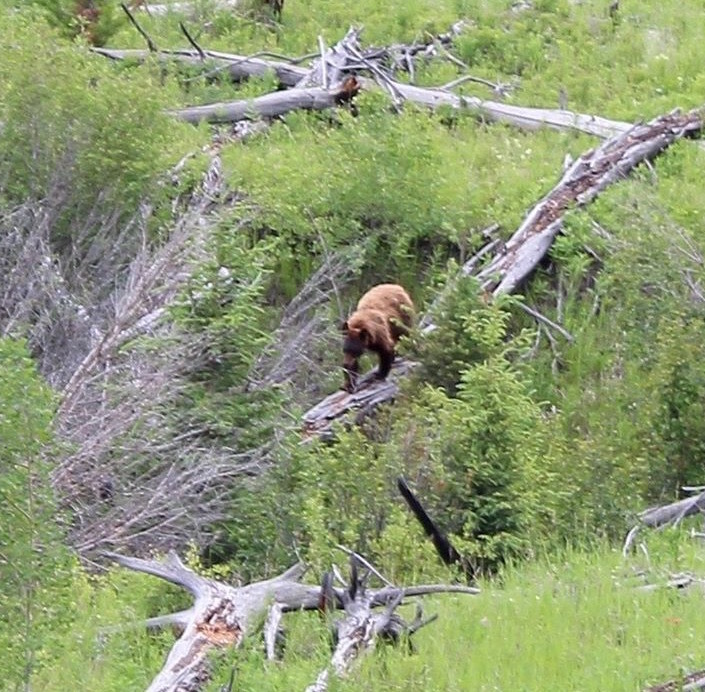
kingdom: Animalia
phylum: Chordata
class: Mammalia
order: Carnivora
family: Ursidae
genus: Ursus
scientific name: Ursus americanus
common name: American black bear
